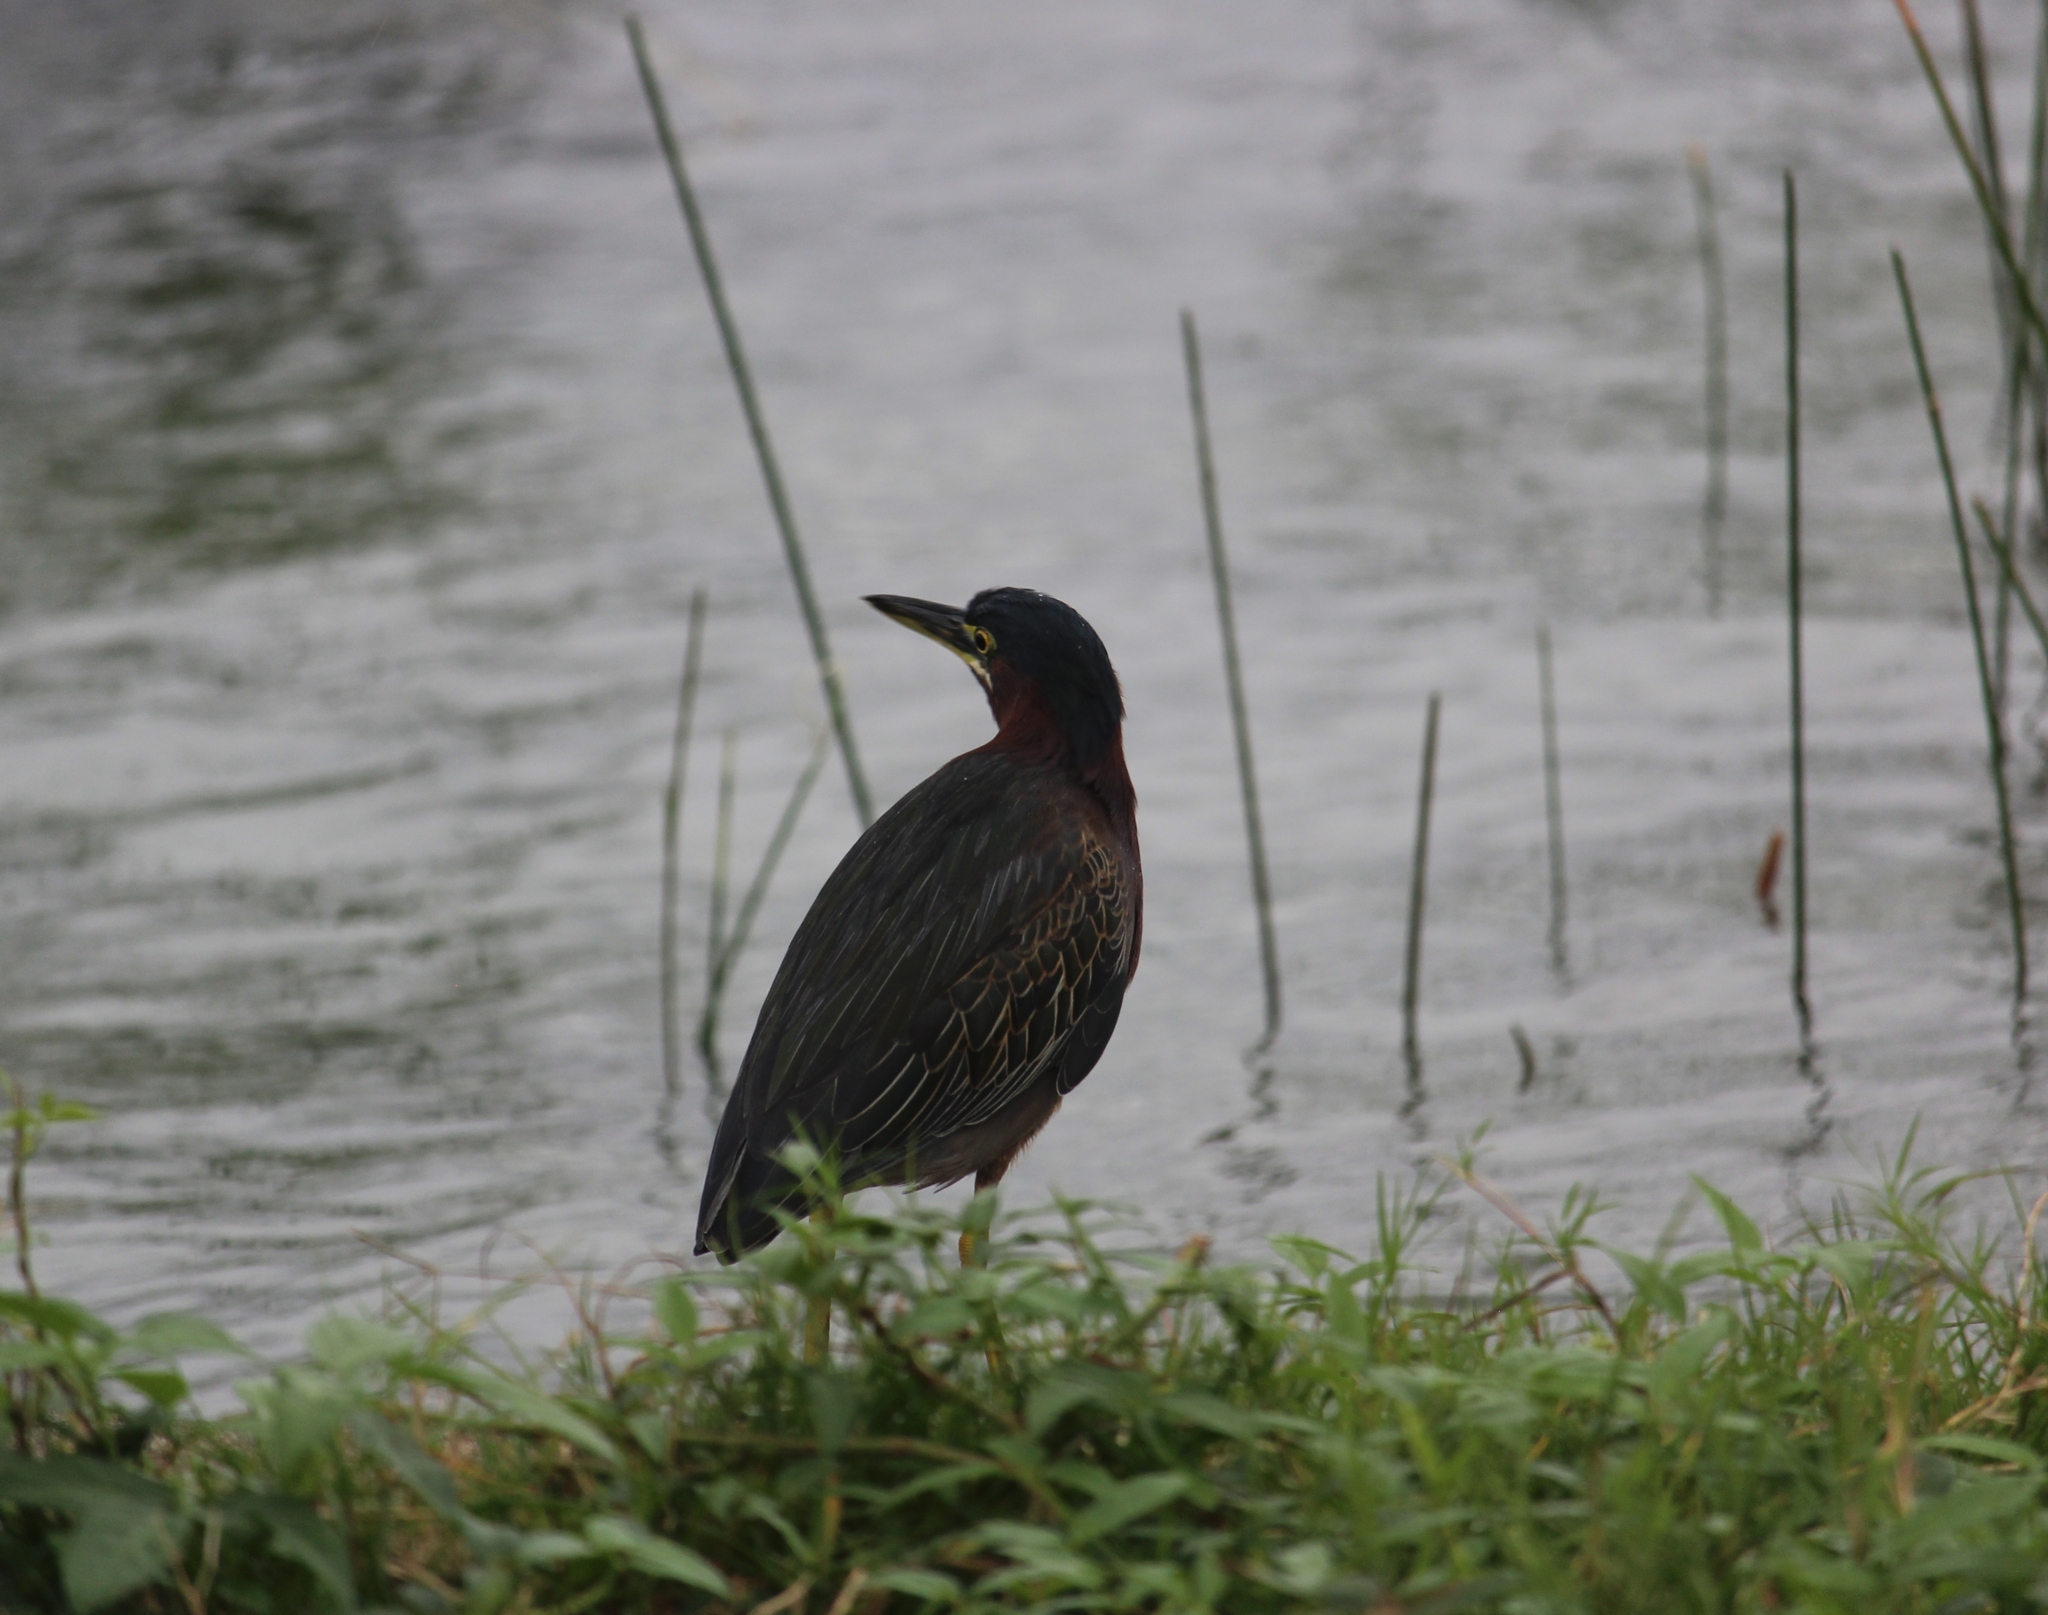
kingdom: Animalia
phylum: Chordata
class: Aves
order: Pelecaniformes
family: Ardeidae
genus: Butorides
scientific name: Butorides virescens
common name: Green heron
